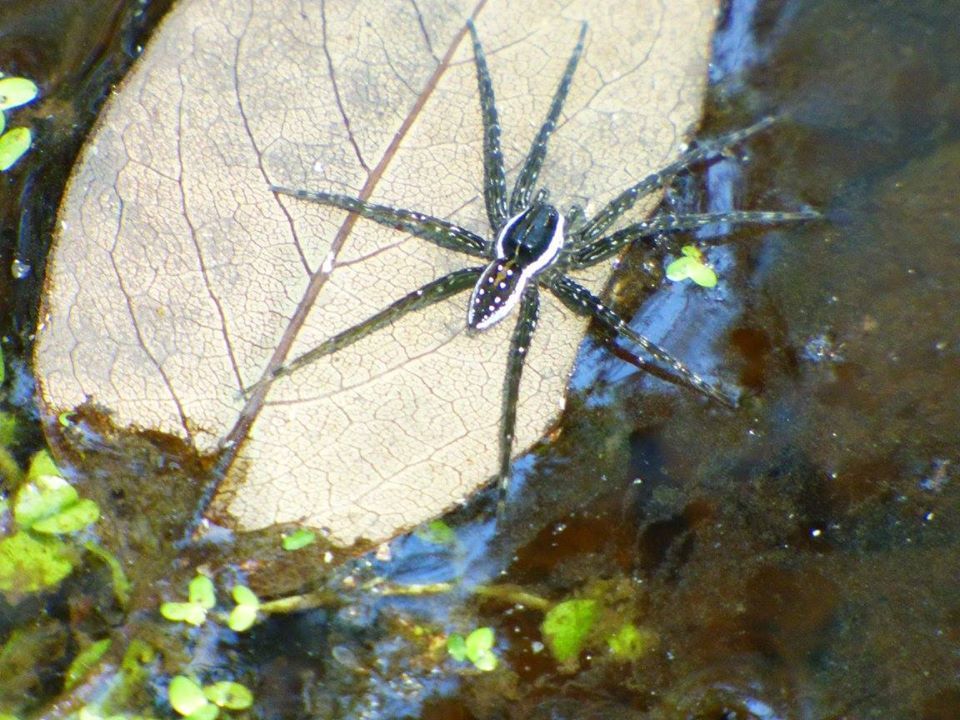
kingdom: Animalia
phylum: Arthropoda
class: Arachnida
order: Araneae
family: Pisauridae
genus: Dolomedes
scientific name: Dolomedes triton
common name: Six-spotted fishing spider
